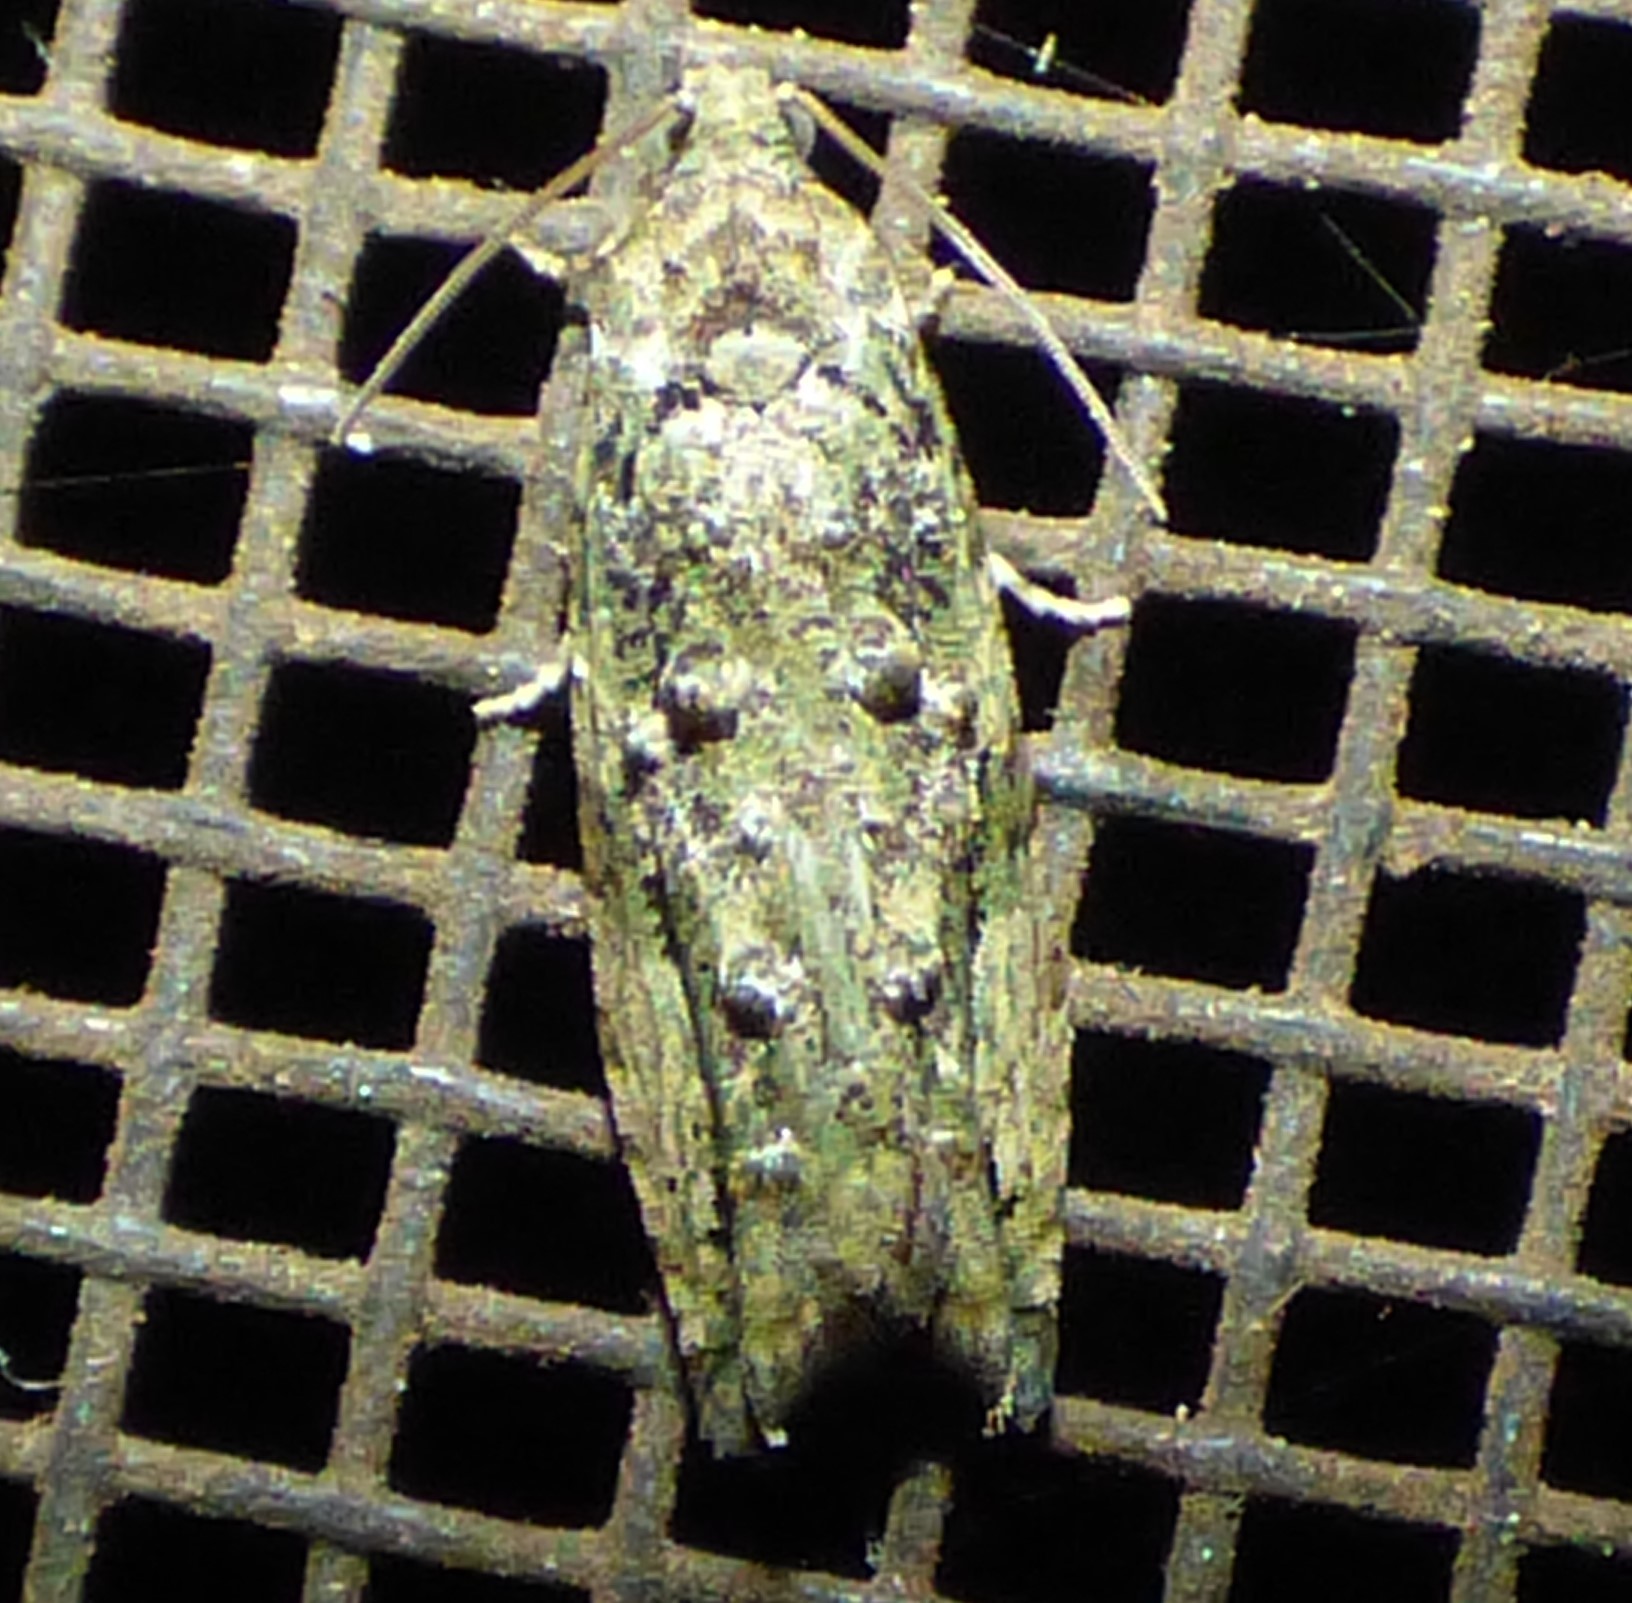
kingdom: Animalia
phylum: Arthropoda
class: Insecta
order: Lepidoptera
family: Tortricidae
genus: Proteoteras
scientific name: Proteoteras aesculana
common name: Maple twig borer moth
